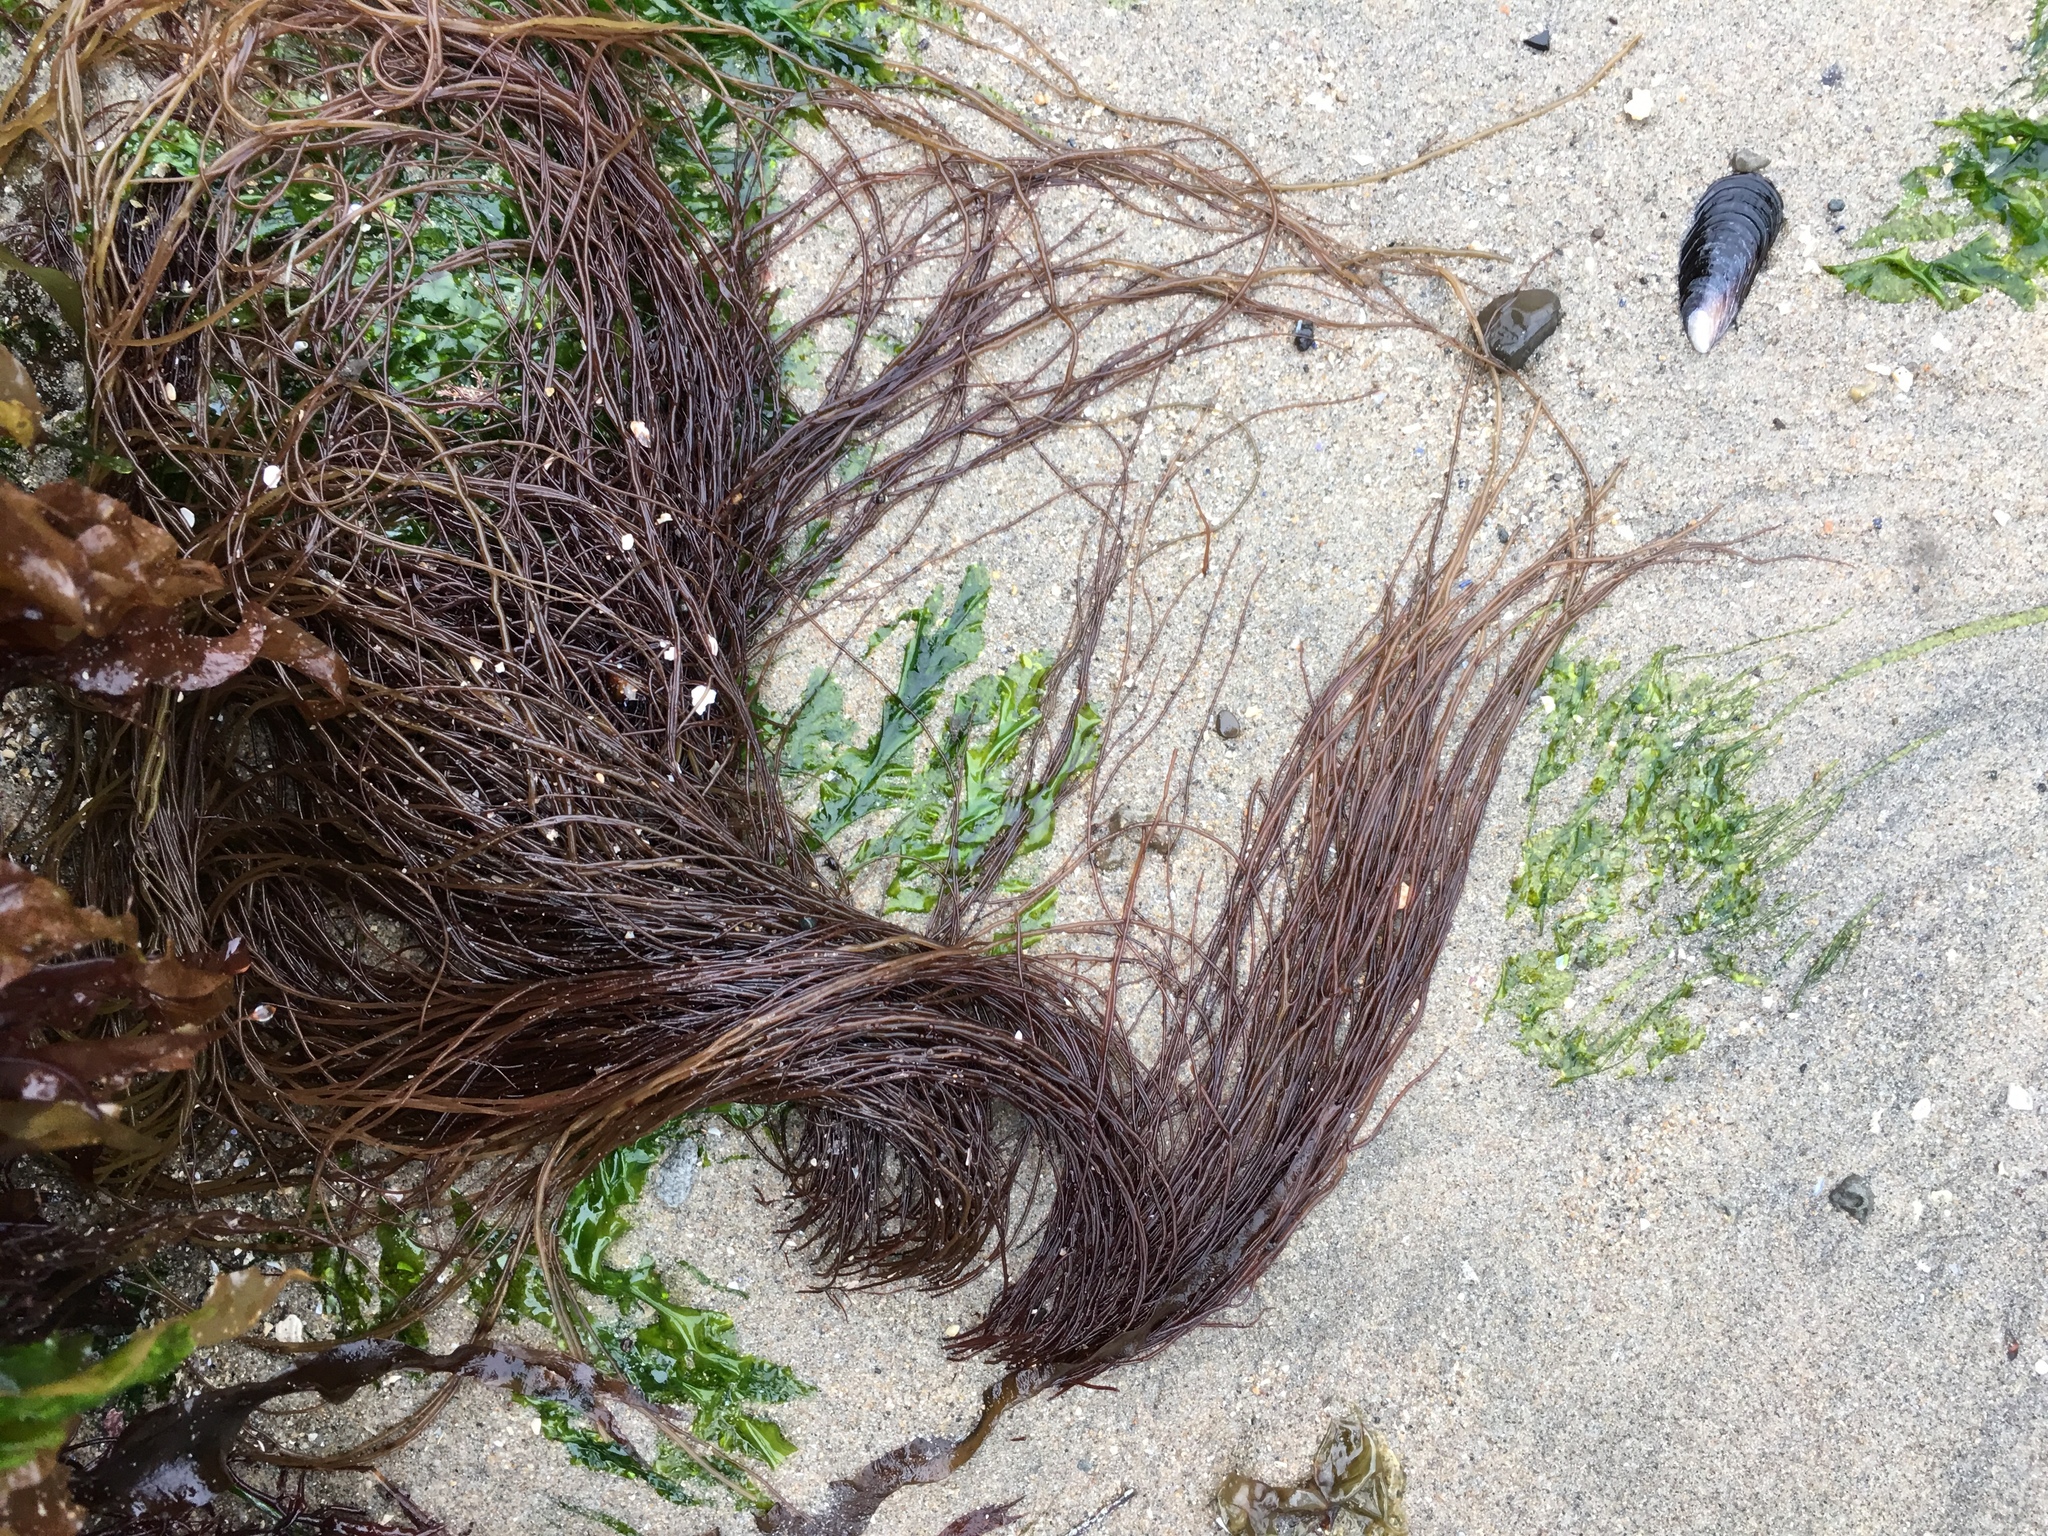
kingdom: Plantae
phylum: Rhodophyta
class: Florideophyceae
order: Gracilariales
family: Gracilariaceae
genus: Gracilariopsis
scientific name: Gracilariopsis andersonii
